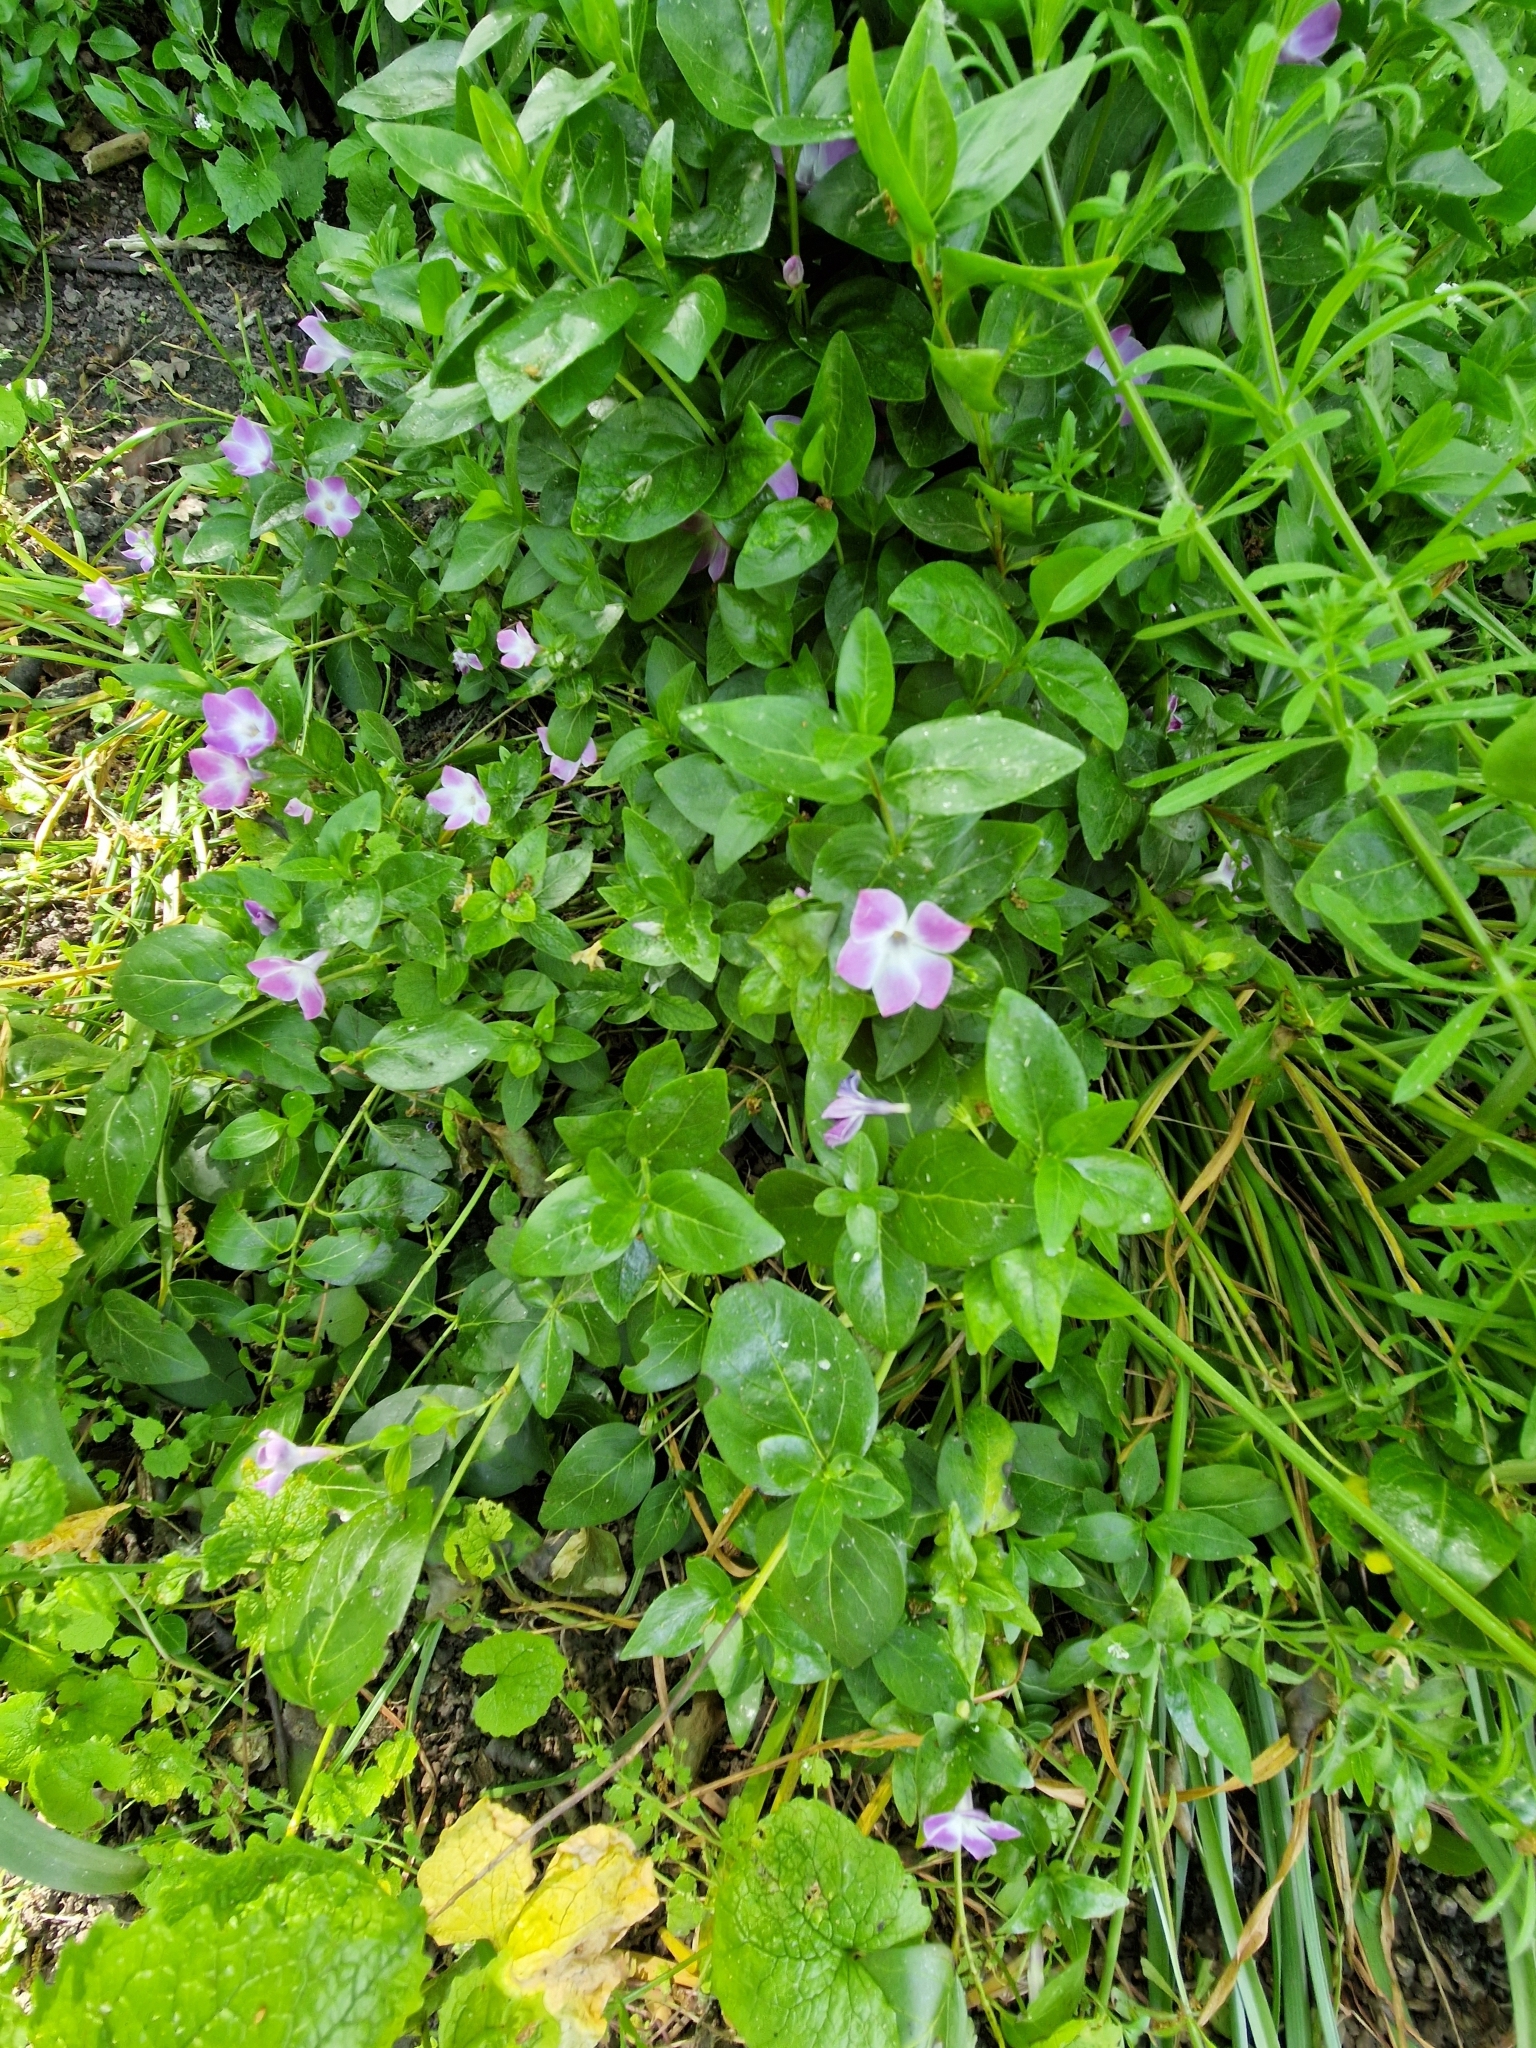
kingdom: Plantae
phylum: Tracheophyta
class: Magnoliopsida
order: Gentianales
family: Apocynaceae
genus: Vinca
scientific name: Vinca major
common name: Greater periwinkle
